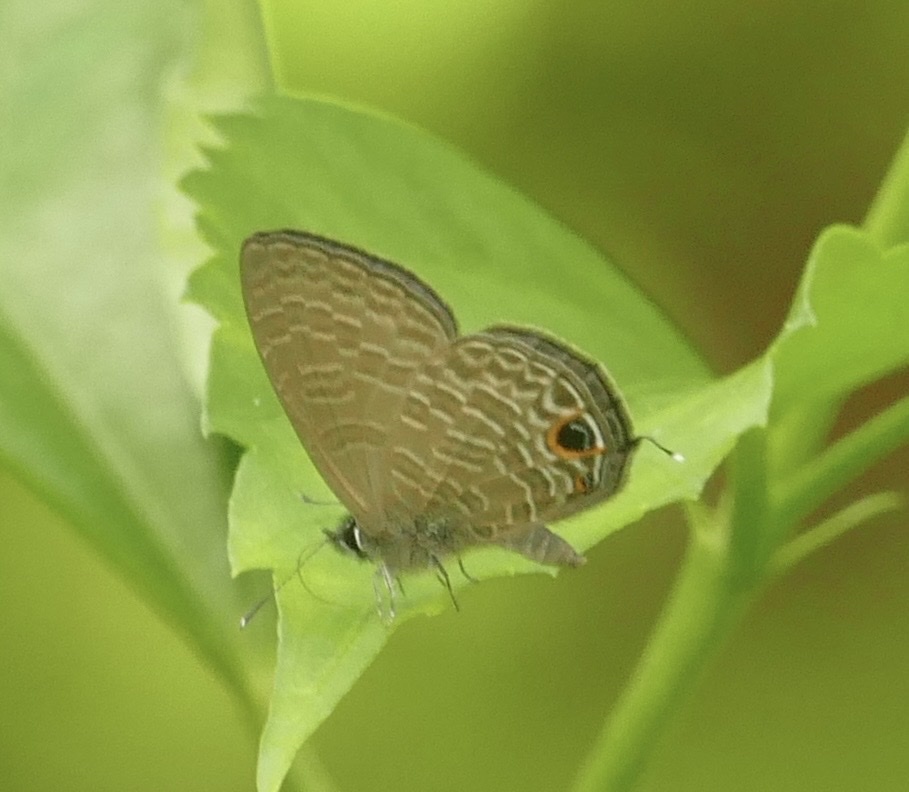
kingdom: Animalia
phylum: Arthropoda
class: Insecta
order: Lepidoptera
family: Lycaenidae
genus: Ionolyce
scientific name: Ionolyce helicon
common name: Pointed line blue
